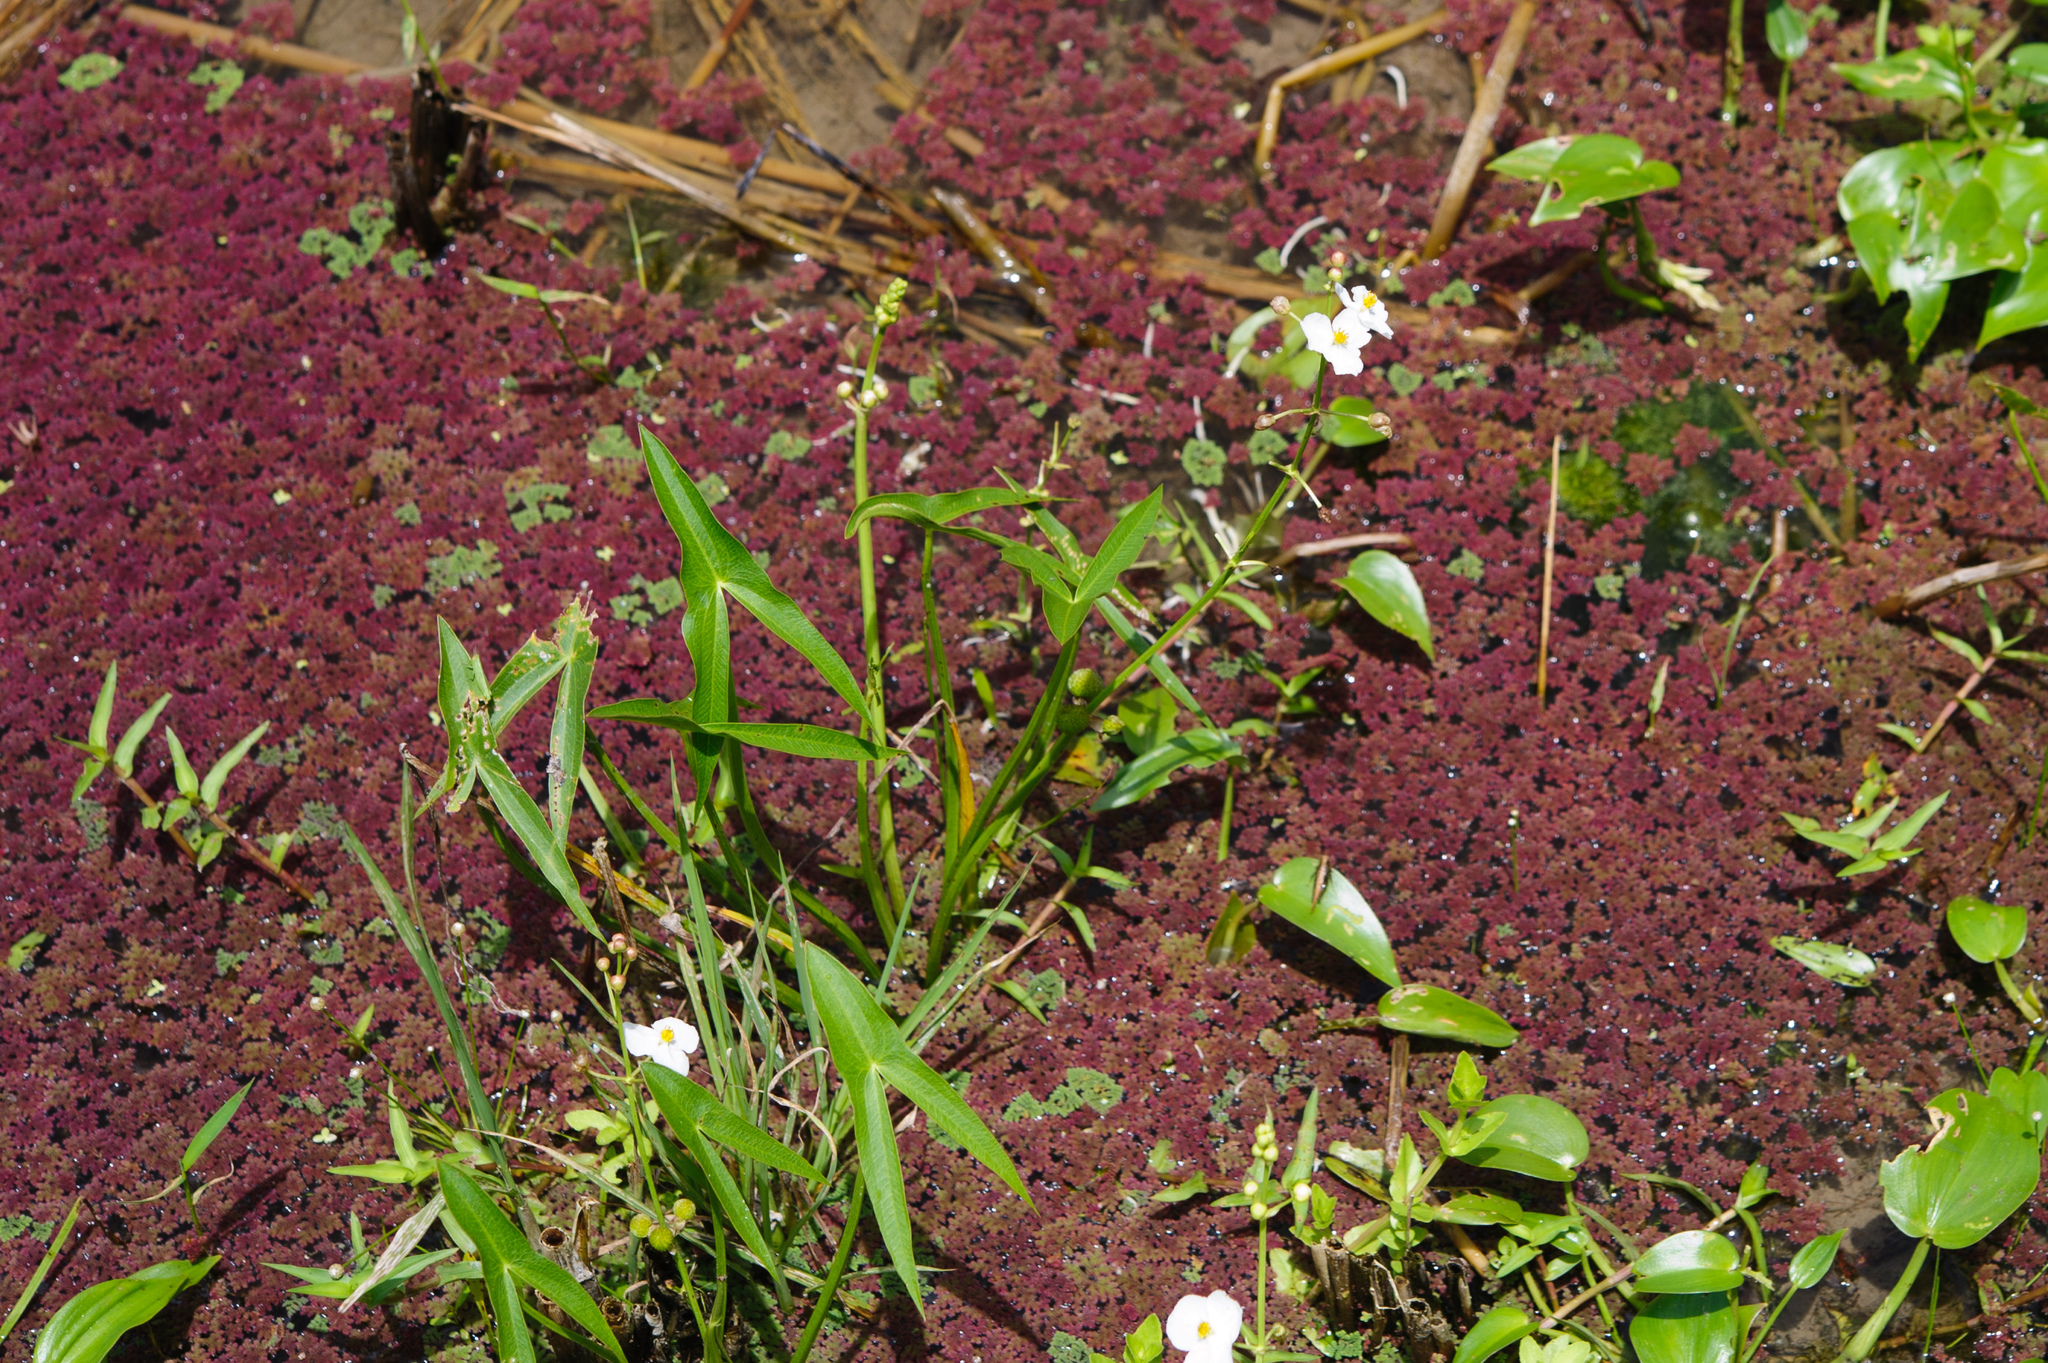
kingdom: Plantae
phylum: Tracheophyta
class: Liliopsida
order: Alismatales
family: Alismataceae
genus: Sagittaria
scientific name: Sagittaria trifolia
